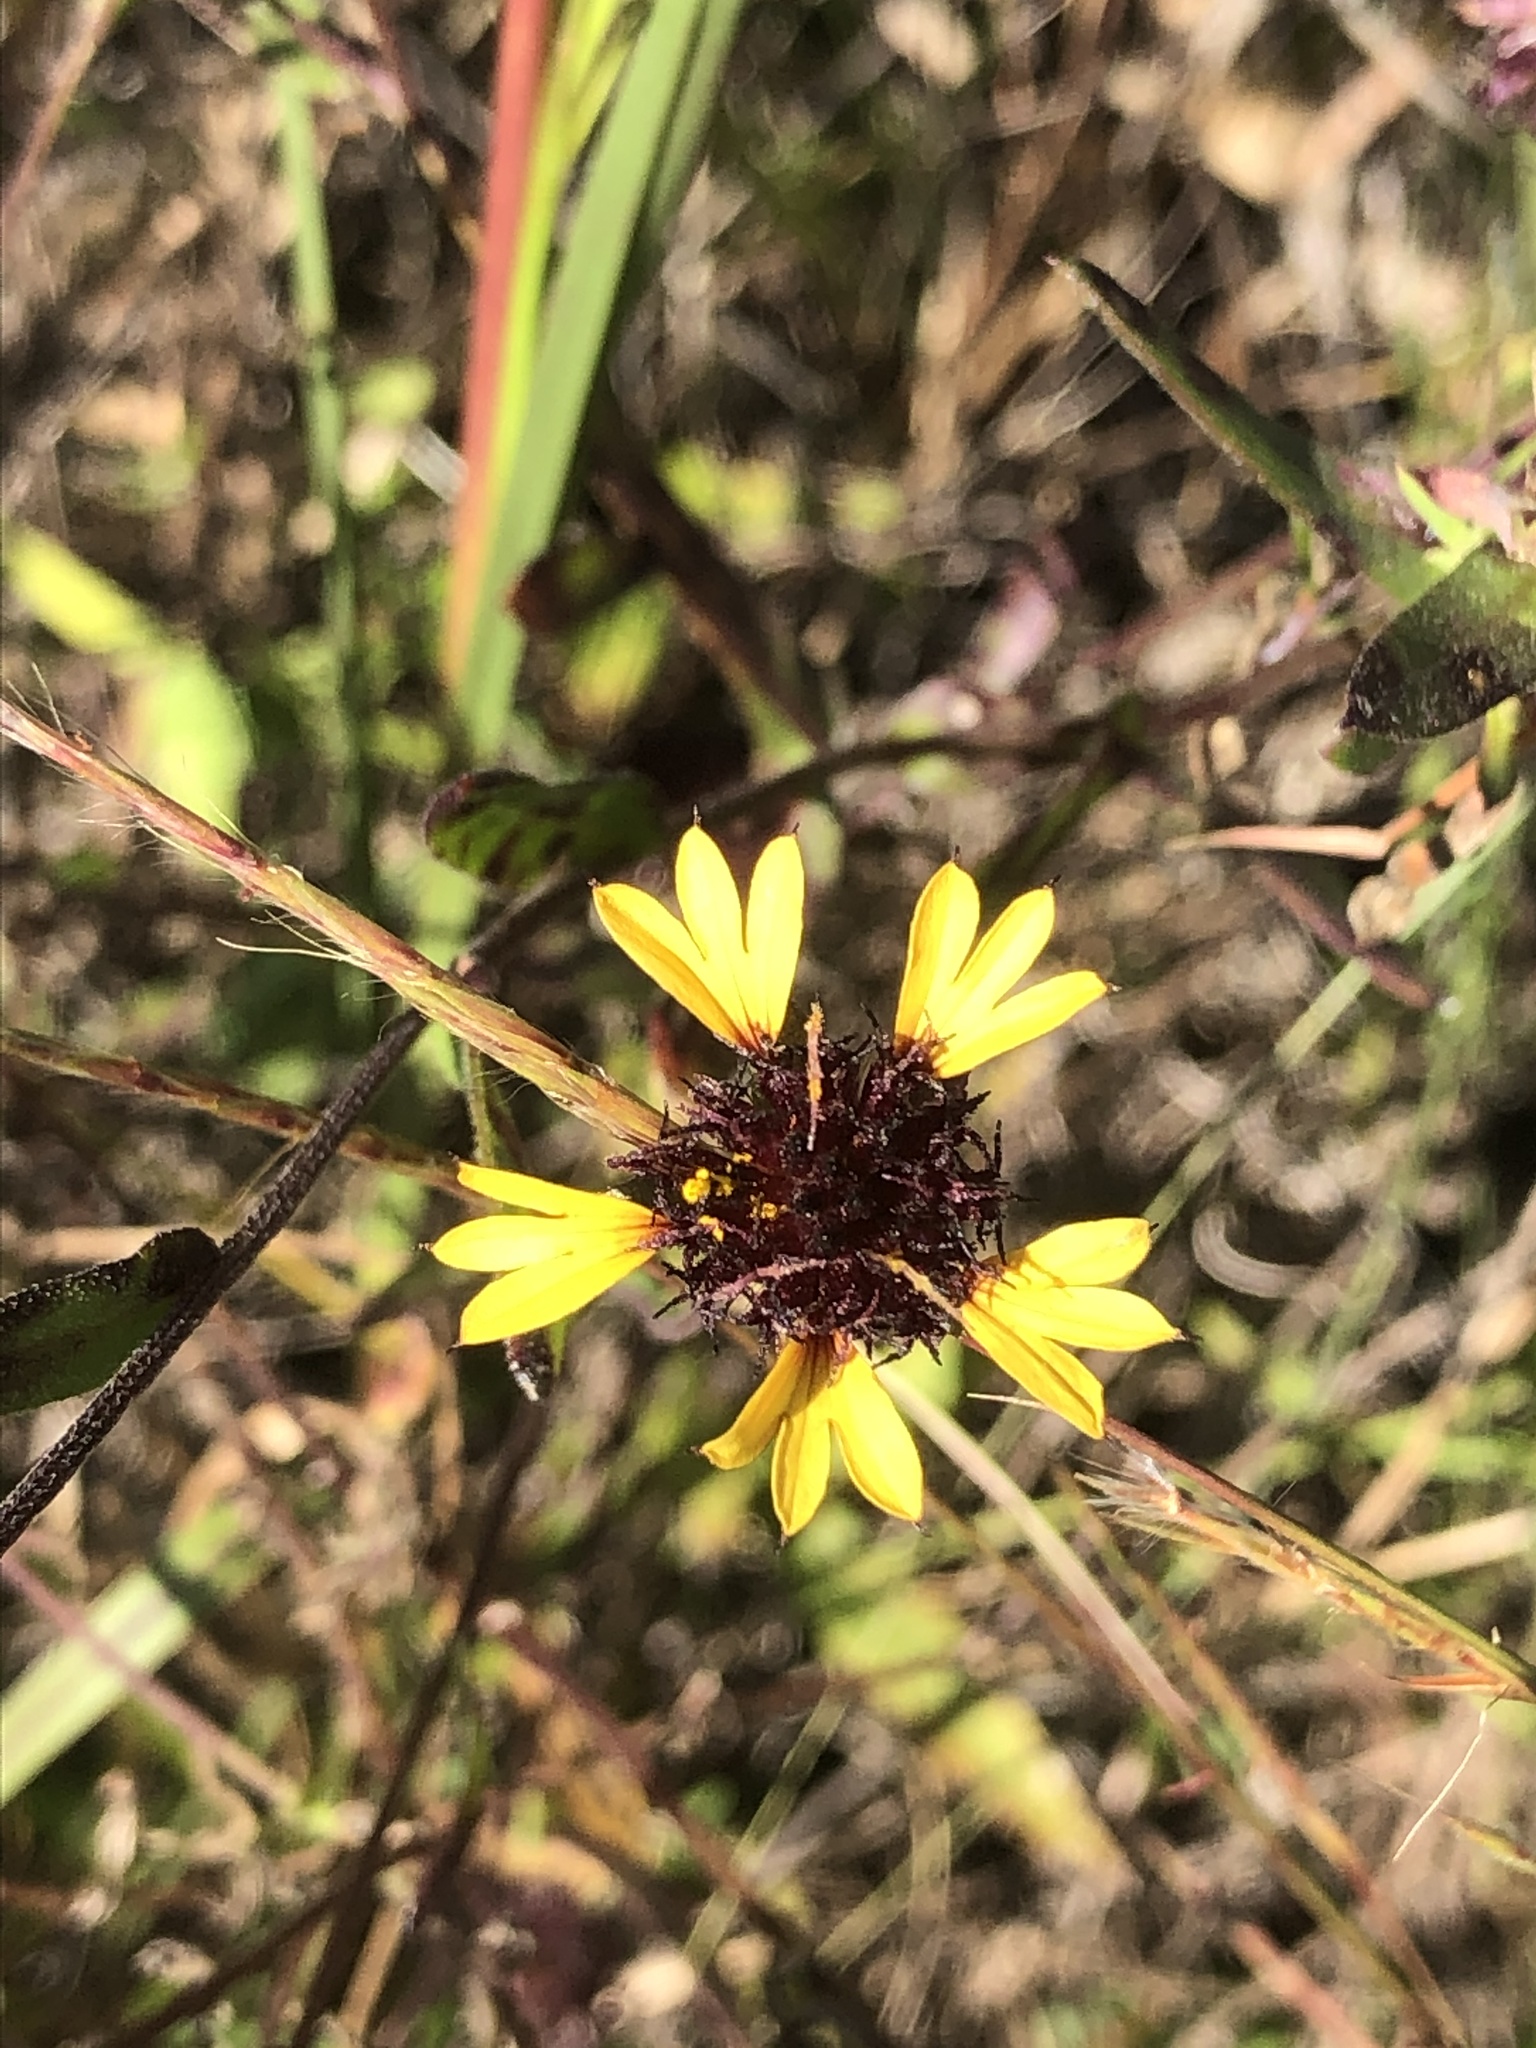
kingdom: Plantae
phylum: Tracheophyta
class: Magnoliopsida
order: Asterales
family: Asteraceae
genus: Gaillardia
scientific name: Gaillardia aestivalis
